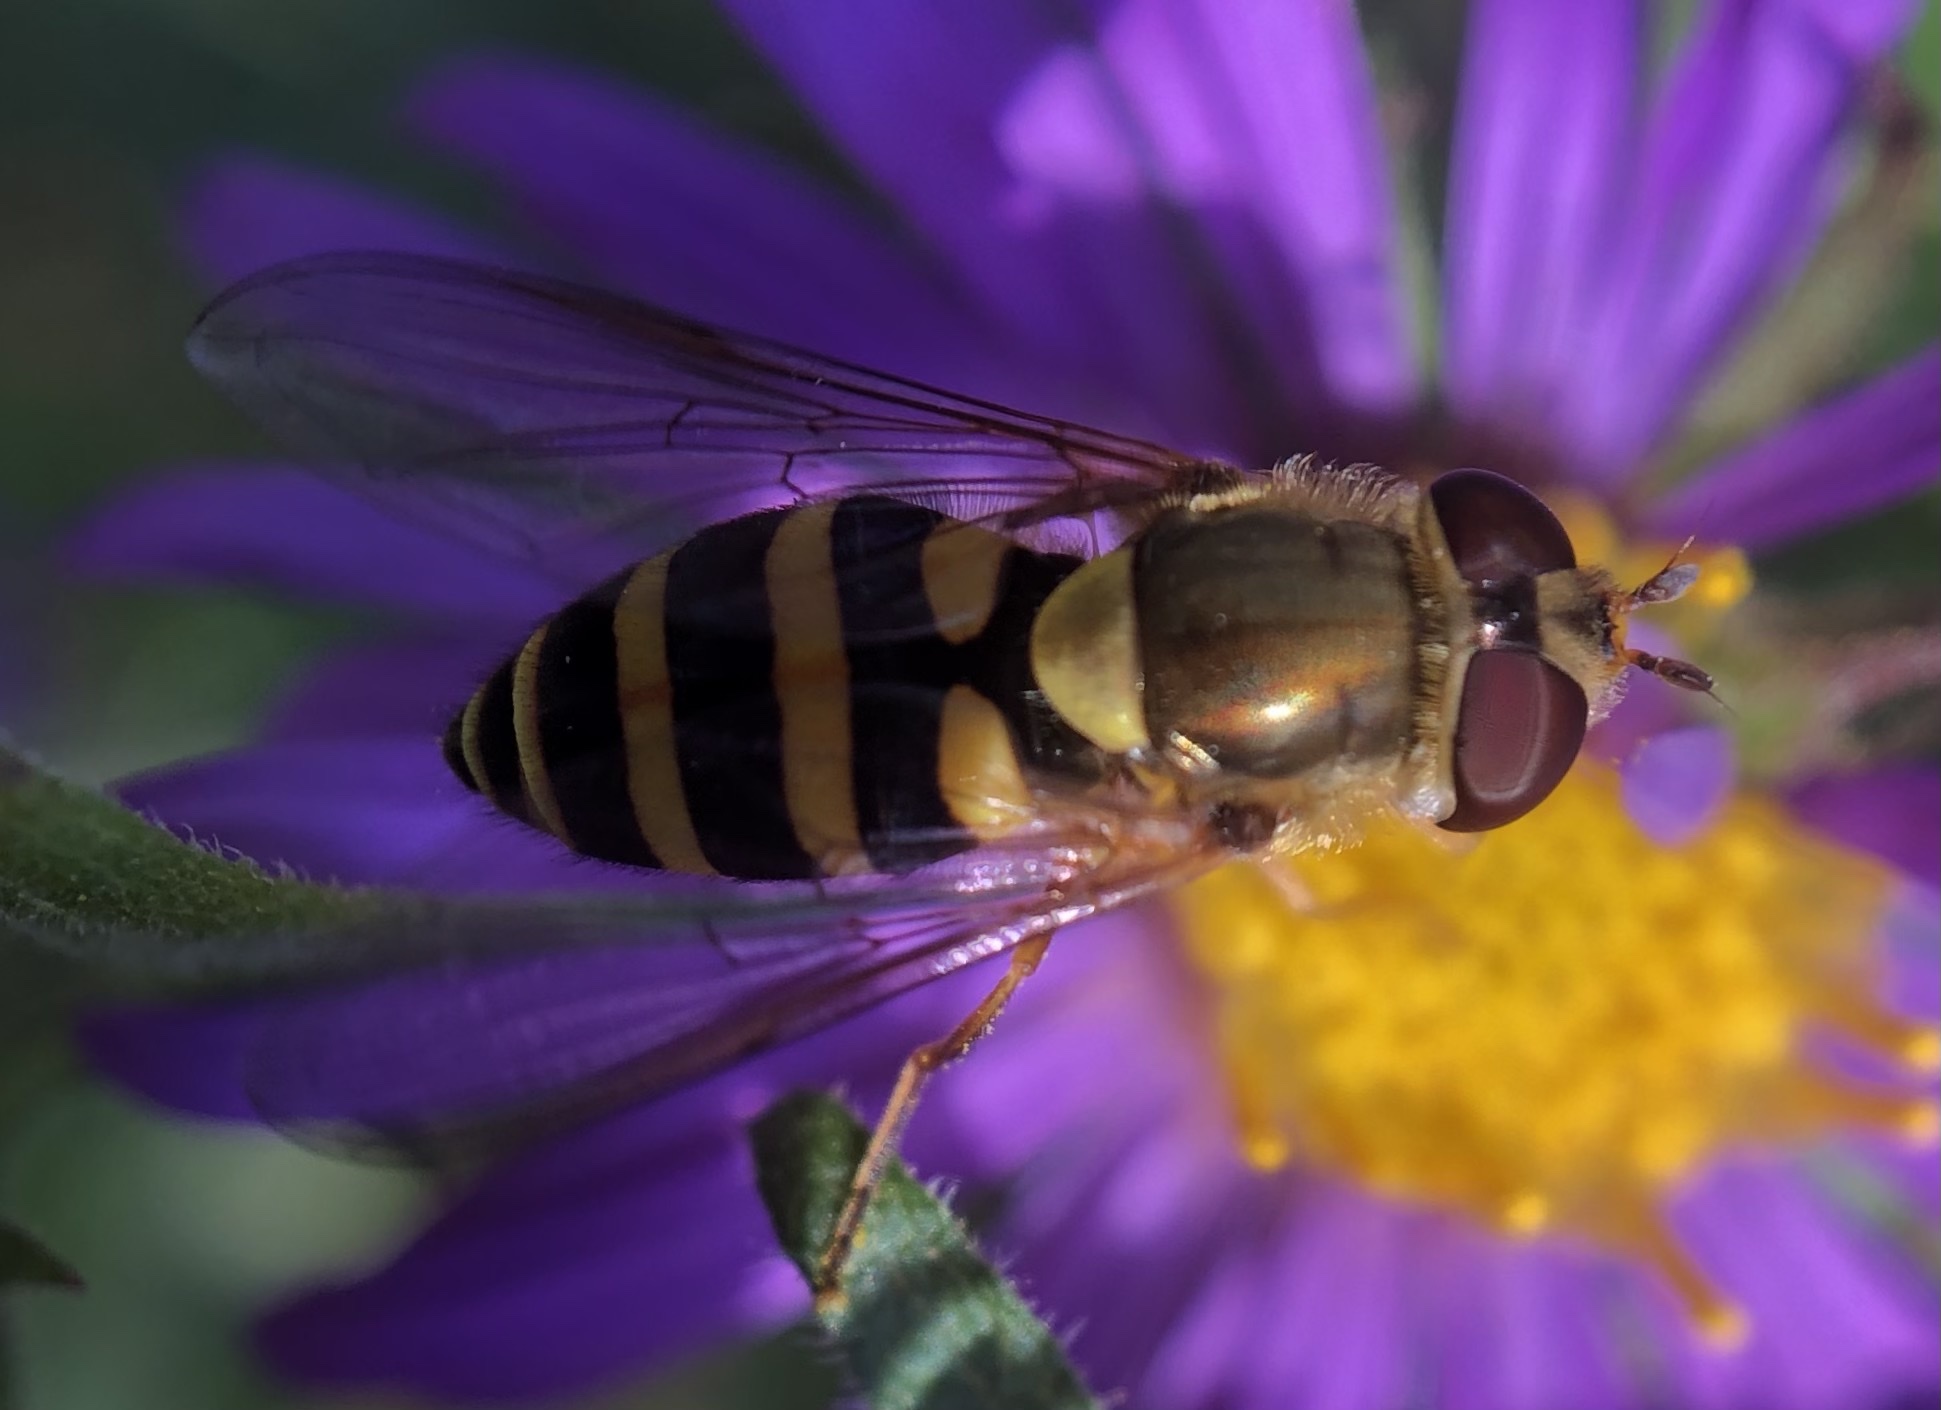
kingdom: Animalia
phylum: Arthropoda
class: Insecta
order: Diptera
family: Syrphidae
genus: Syrphus
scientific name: Syrphus
